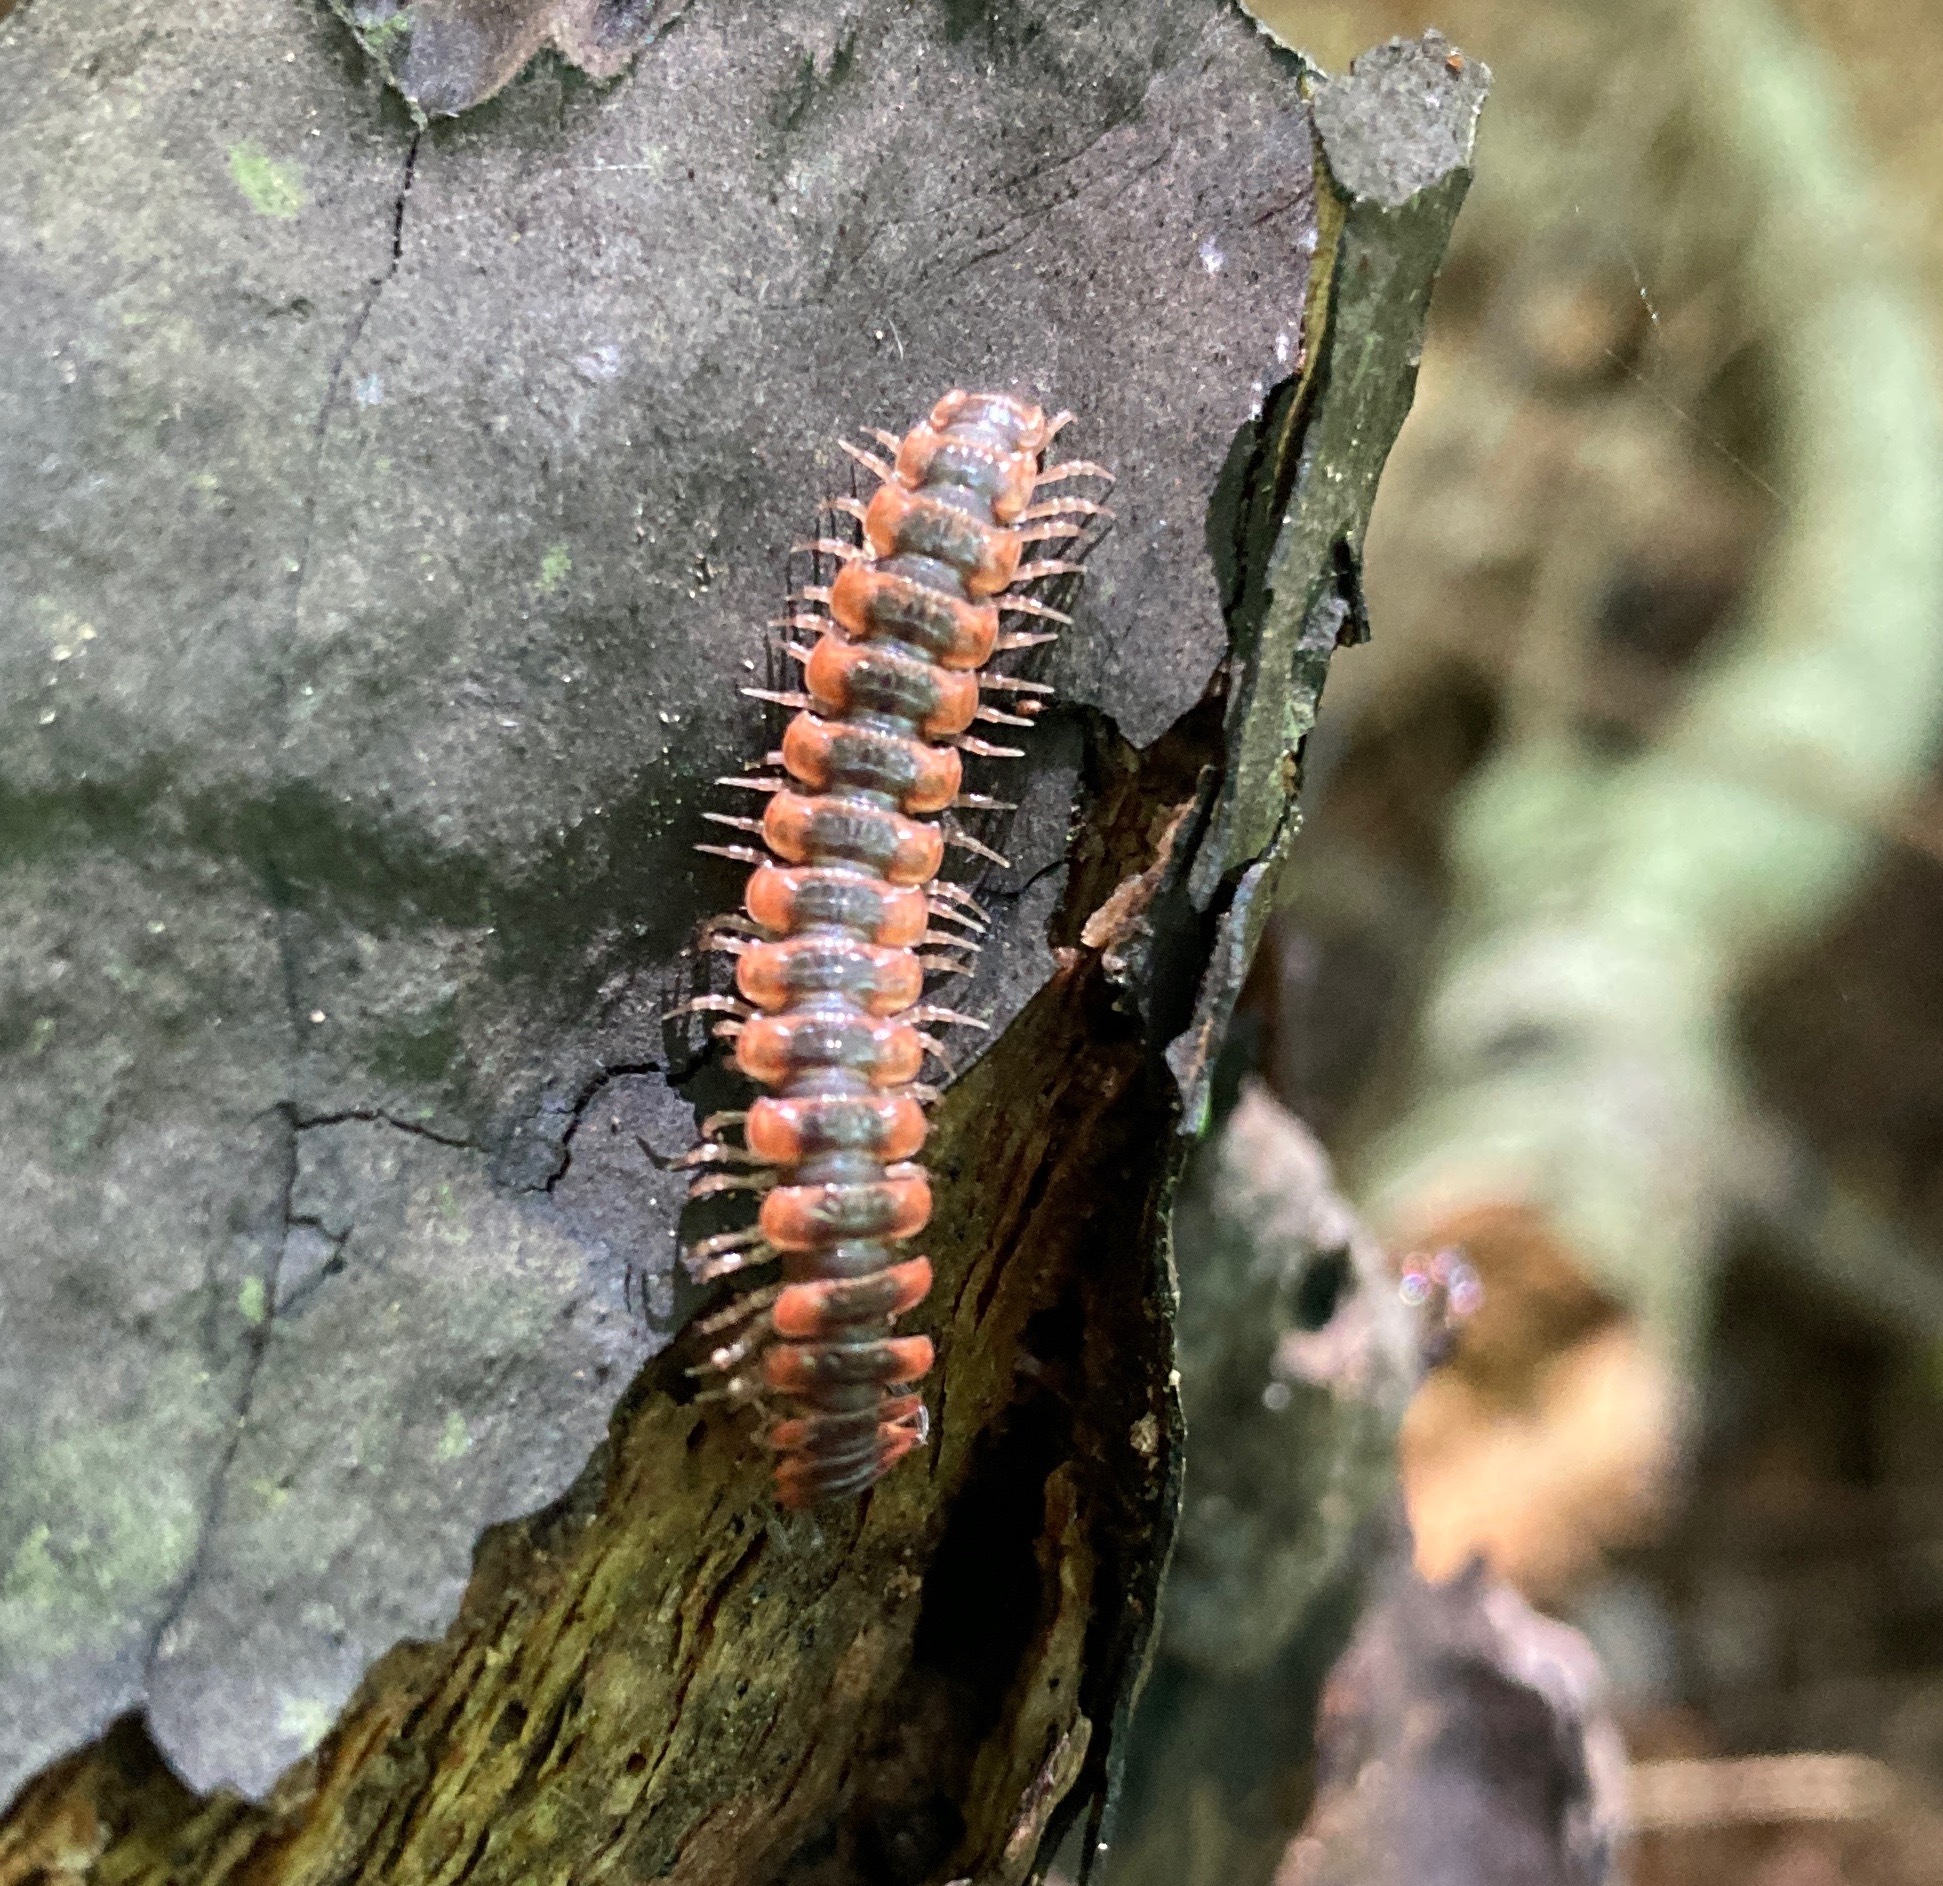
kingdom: Animalia
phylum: Arthropoda
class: Diplopoda
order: Polydesmida
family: Polydesmidae
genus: Pseudopolydesmus
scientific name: Pseudopolydesmus canadensis
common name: Canadian flat-back millipede
